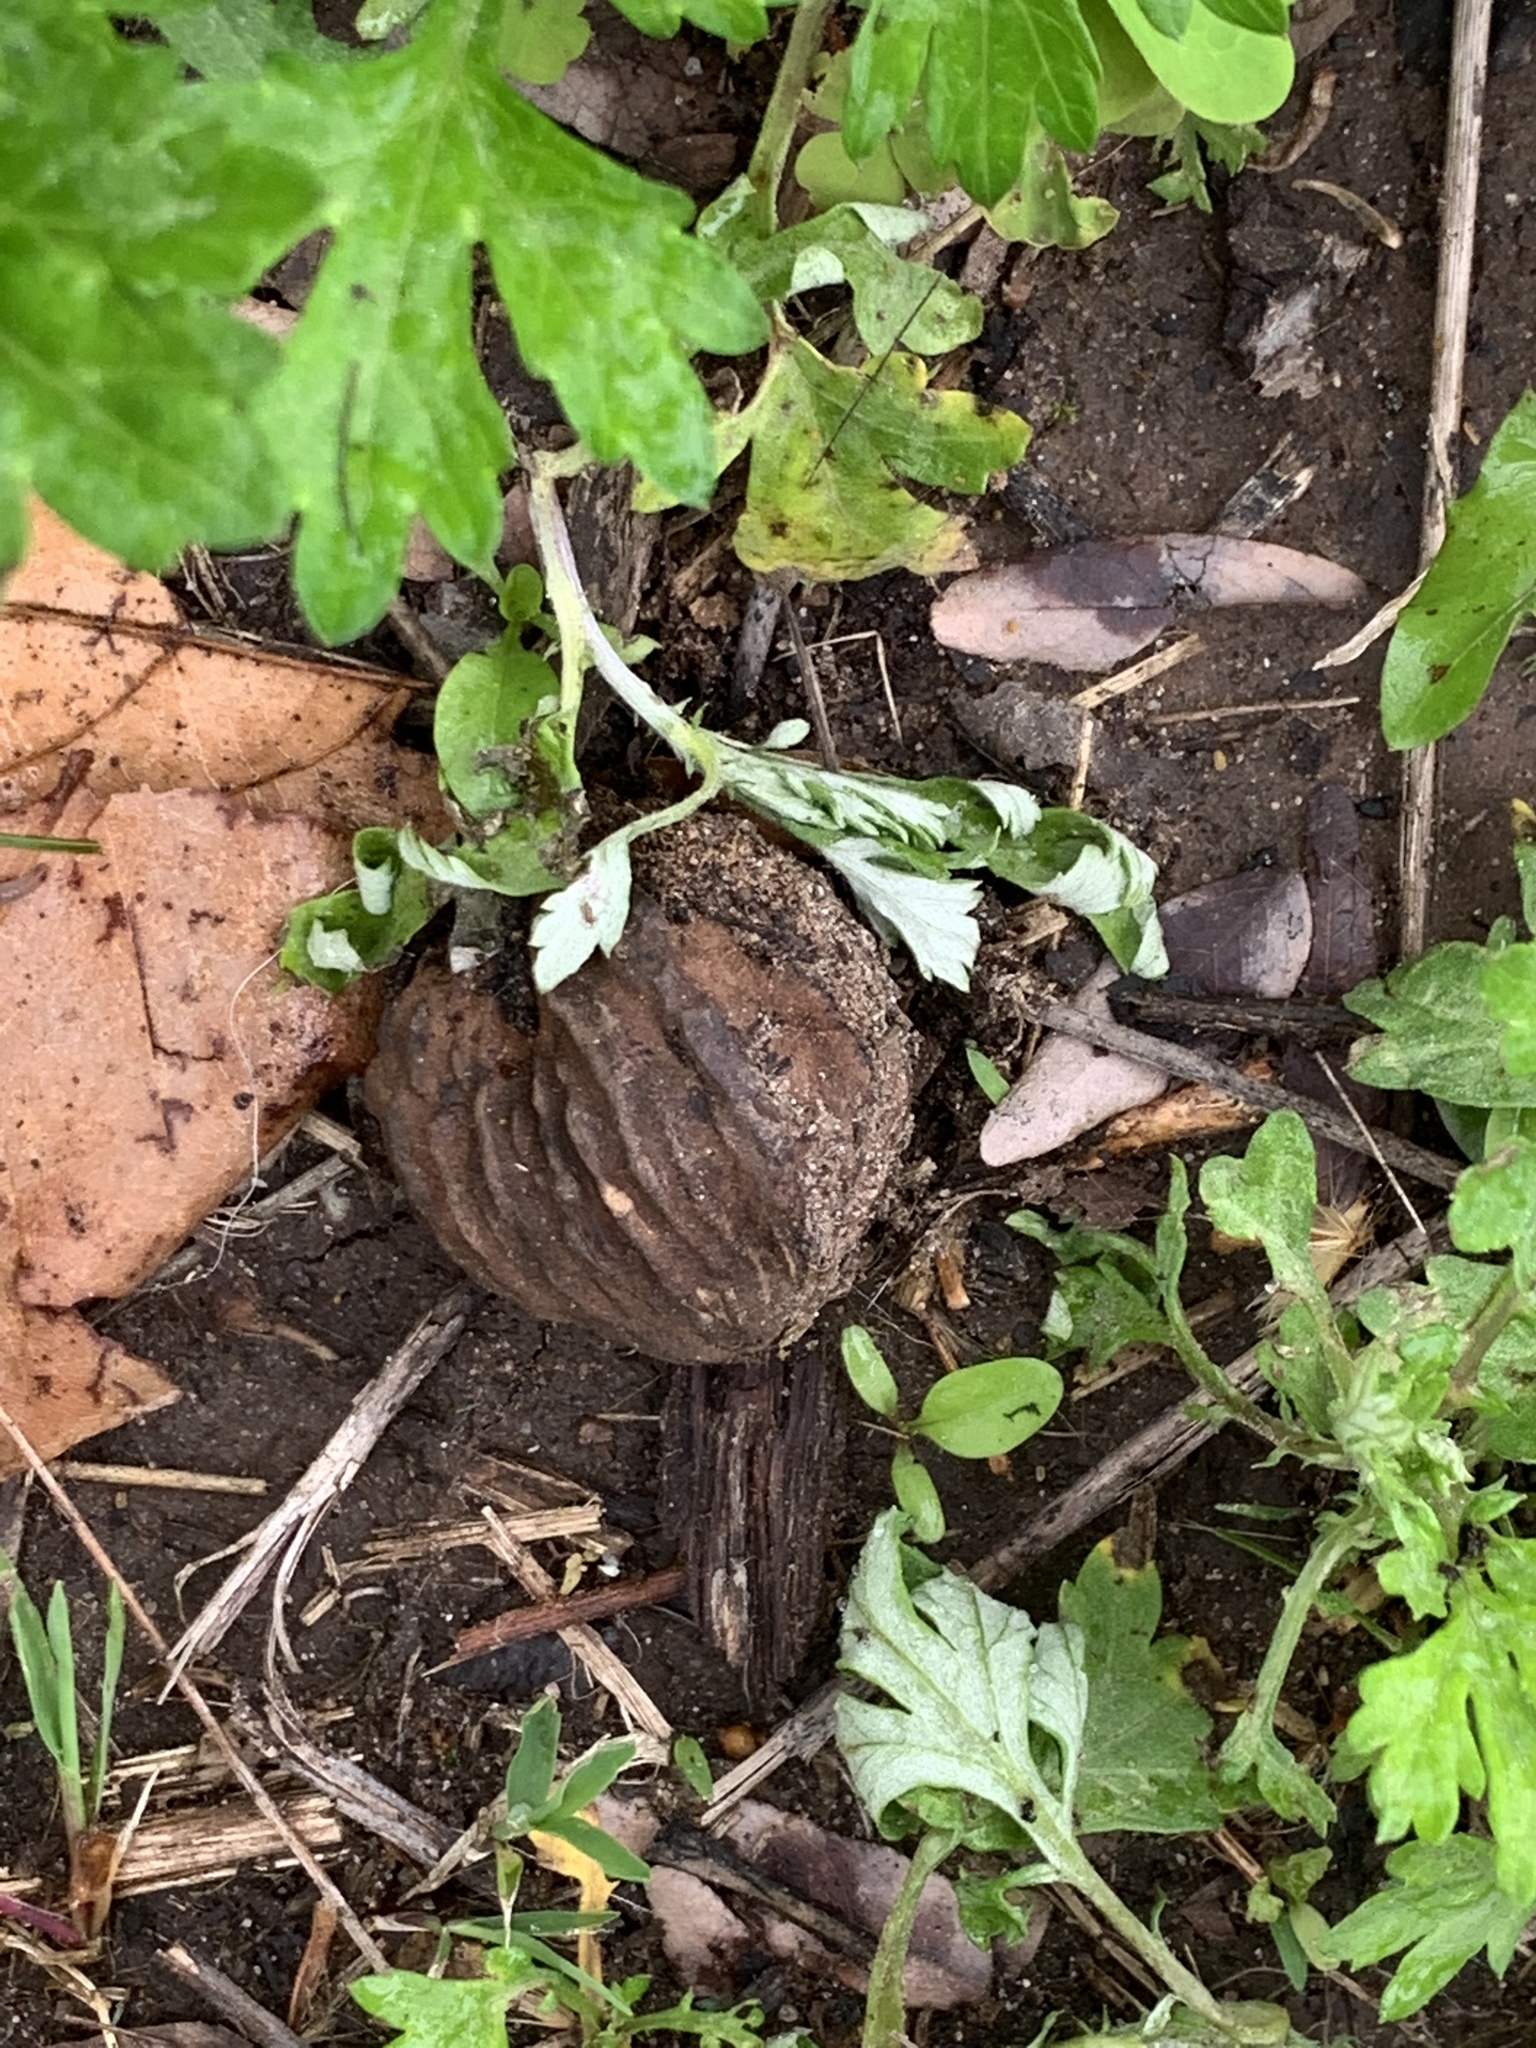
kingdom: Plantae
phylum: Tracheophyta
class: Magnoliopsida
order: Fagales
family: Juglandaceae
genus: Juglans
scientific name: Juglans nigra
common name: Black walnut
